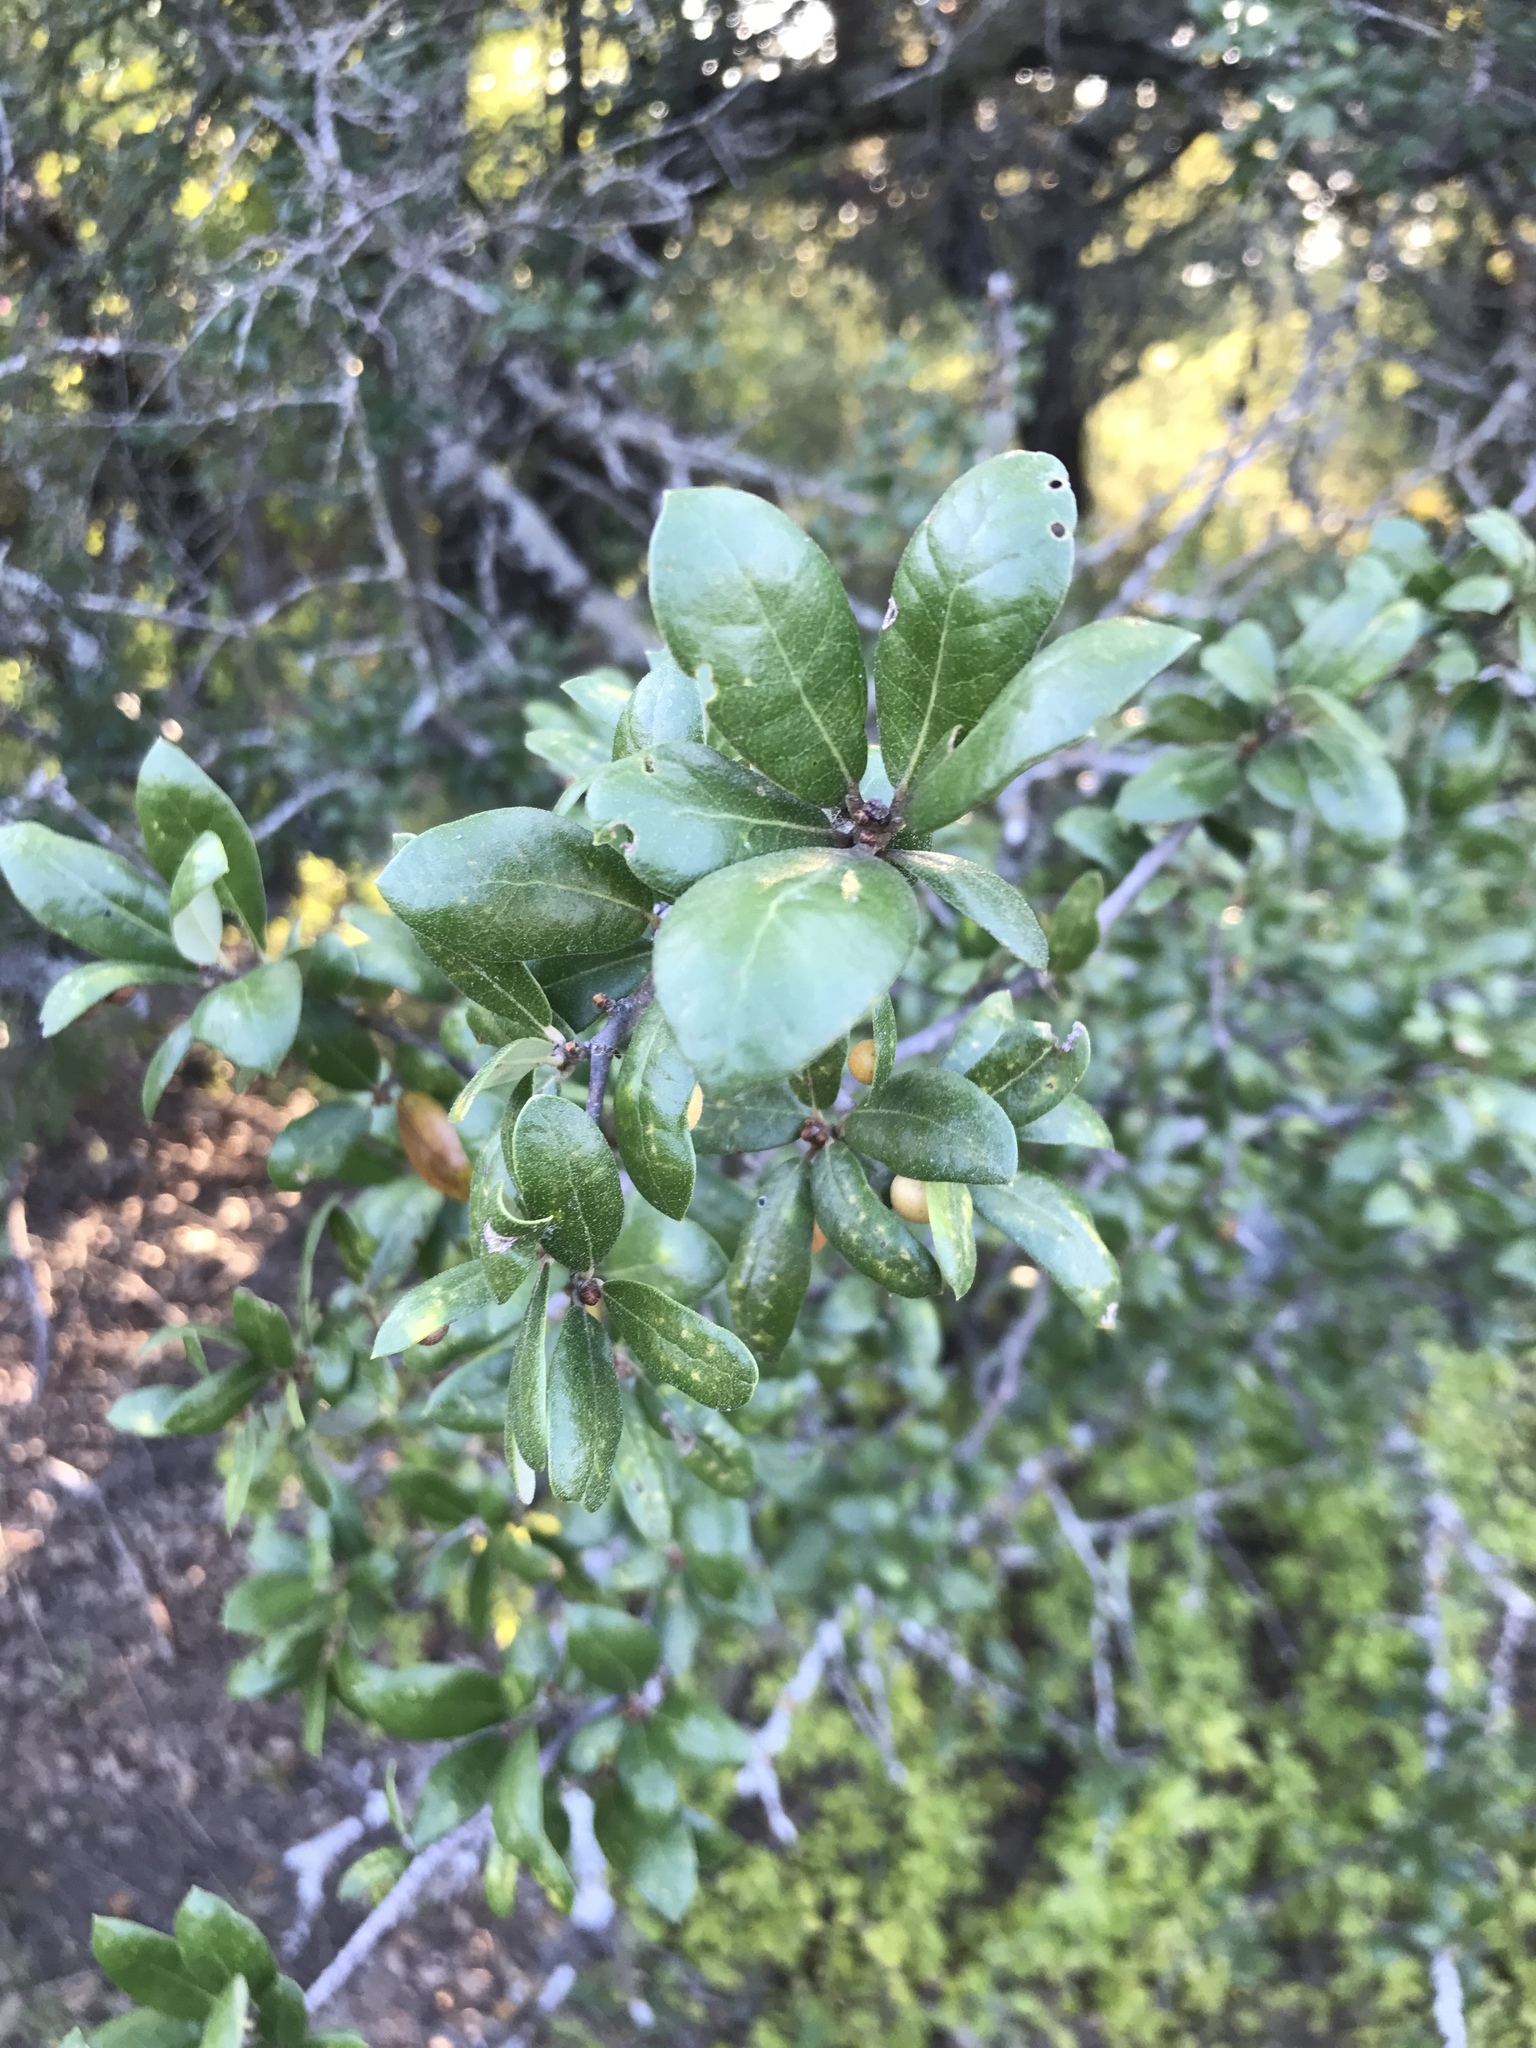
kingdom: Plantae
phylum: Tracheophyta
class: Magnoliopsida
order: Fagales
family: Fagaceae
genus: Quercus
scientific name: Quercus fusiformis
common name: Texas live oak
